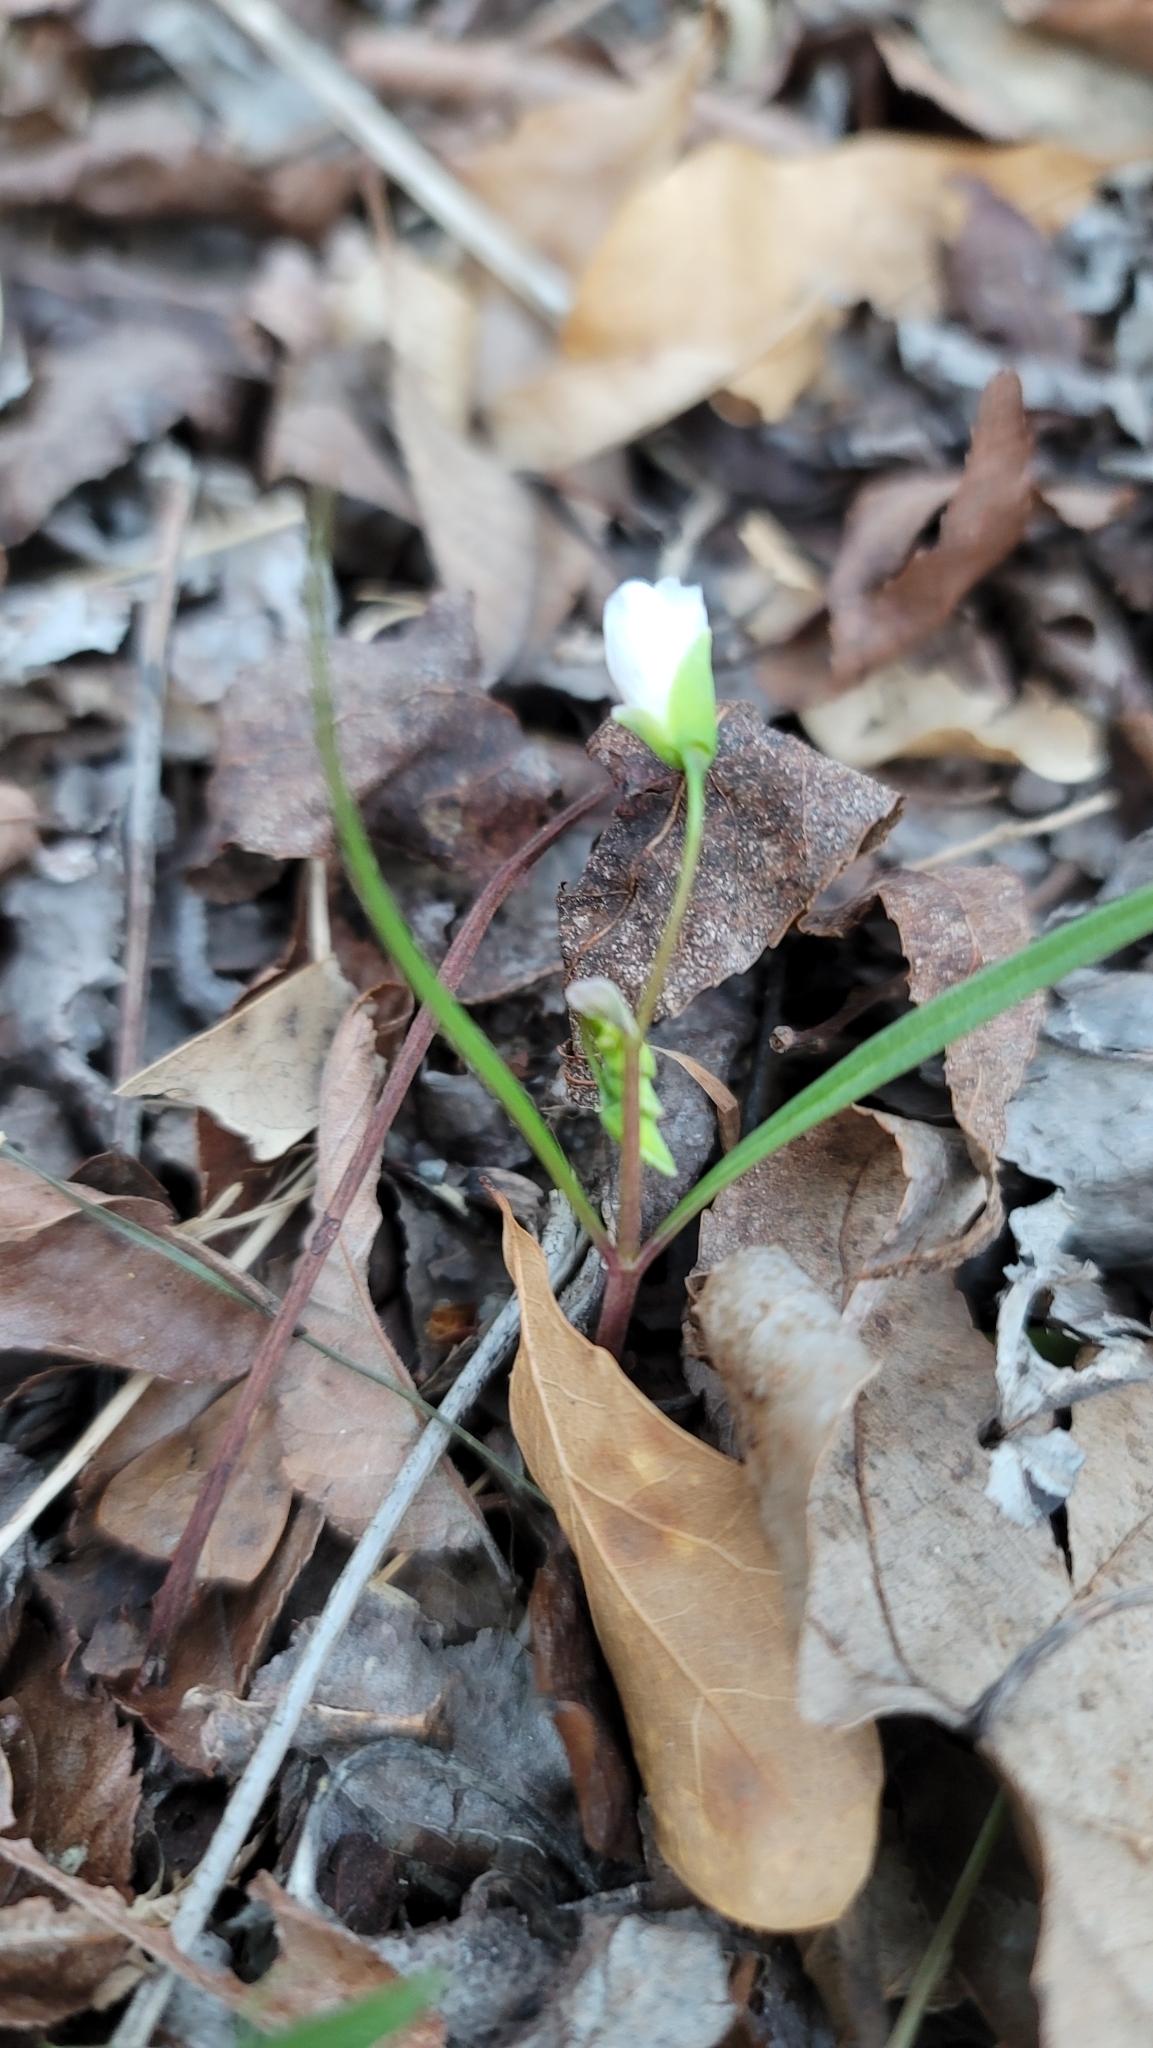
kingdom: Plantae
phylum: Tracheophyta
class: Magnoliopsida
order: Caryophyllales
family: Montiaceae
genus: Claytonia
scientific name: Claytonia virginica
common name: Virginia springbeauty
